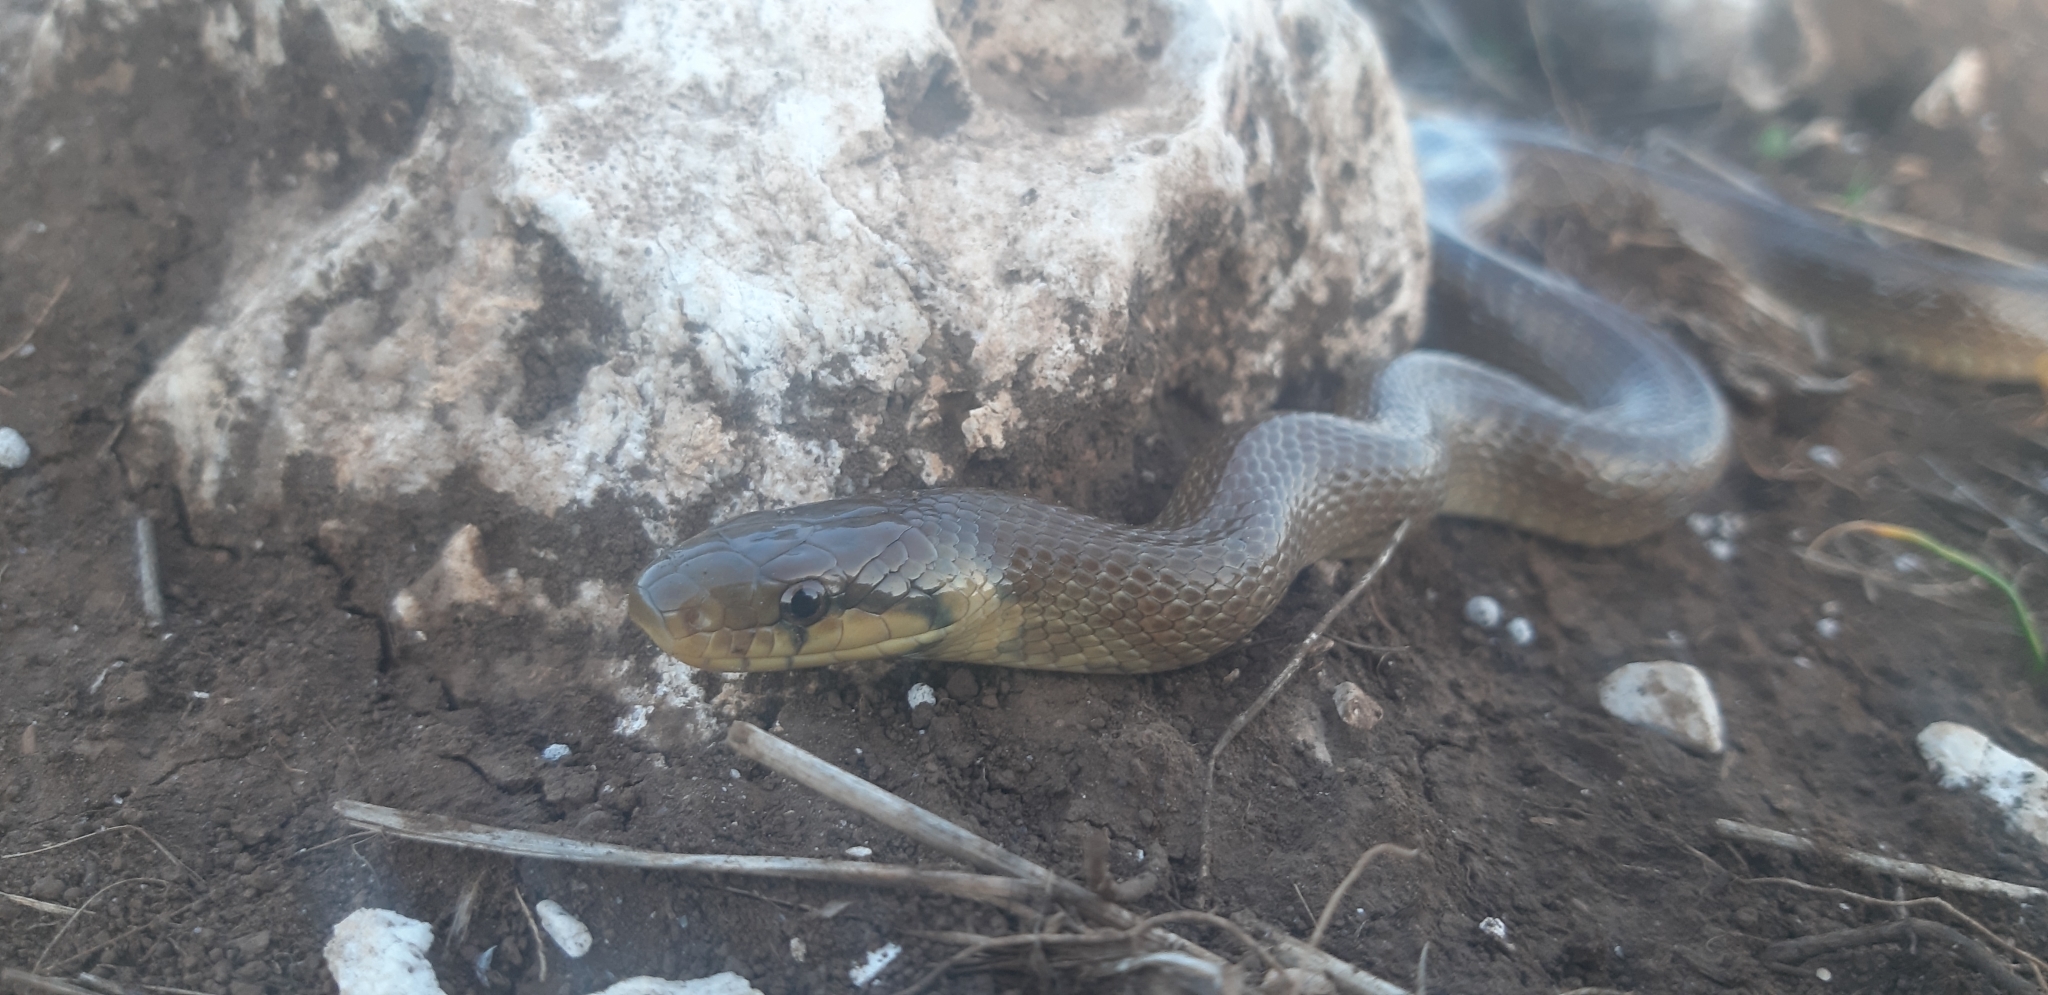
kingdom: Animalia
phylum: Chordata
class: Squamata
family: Colubridae
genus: Zamenis
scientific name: Zamenis longissimus
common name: Aesculapean snake
